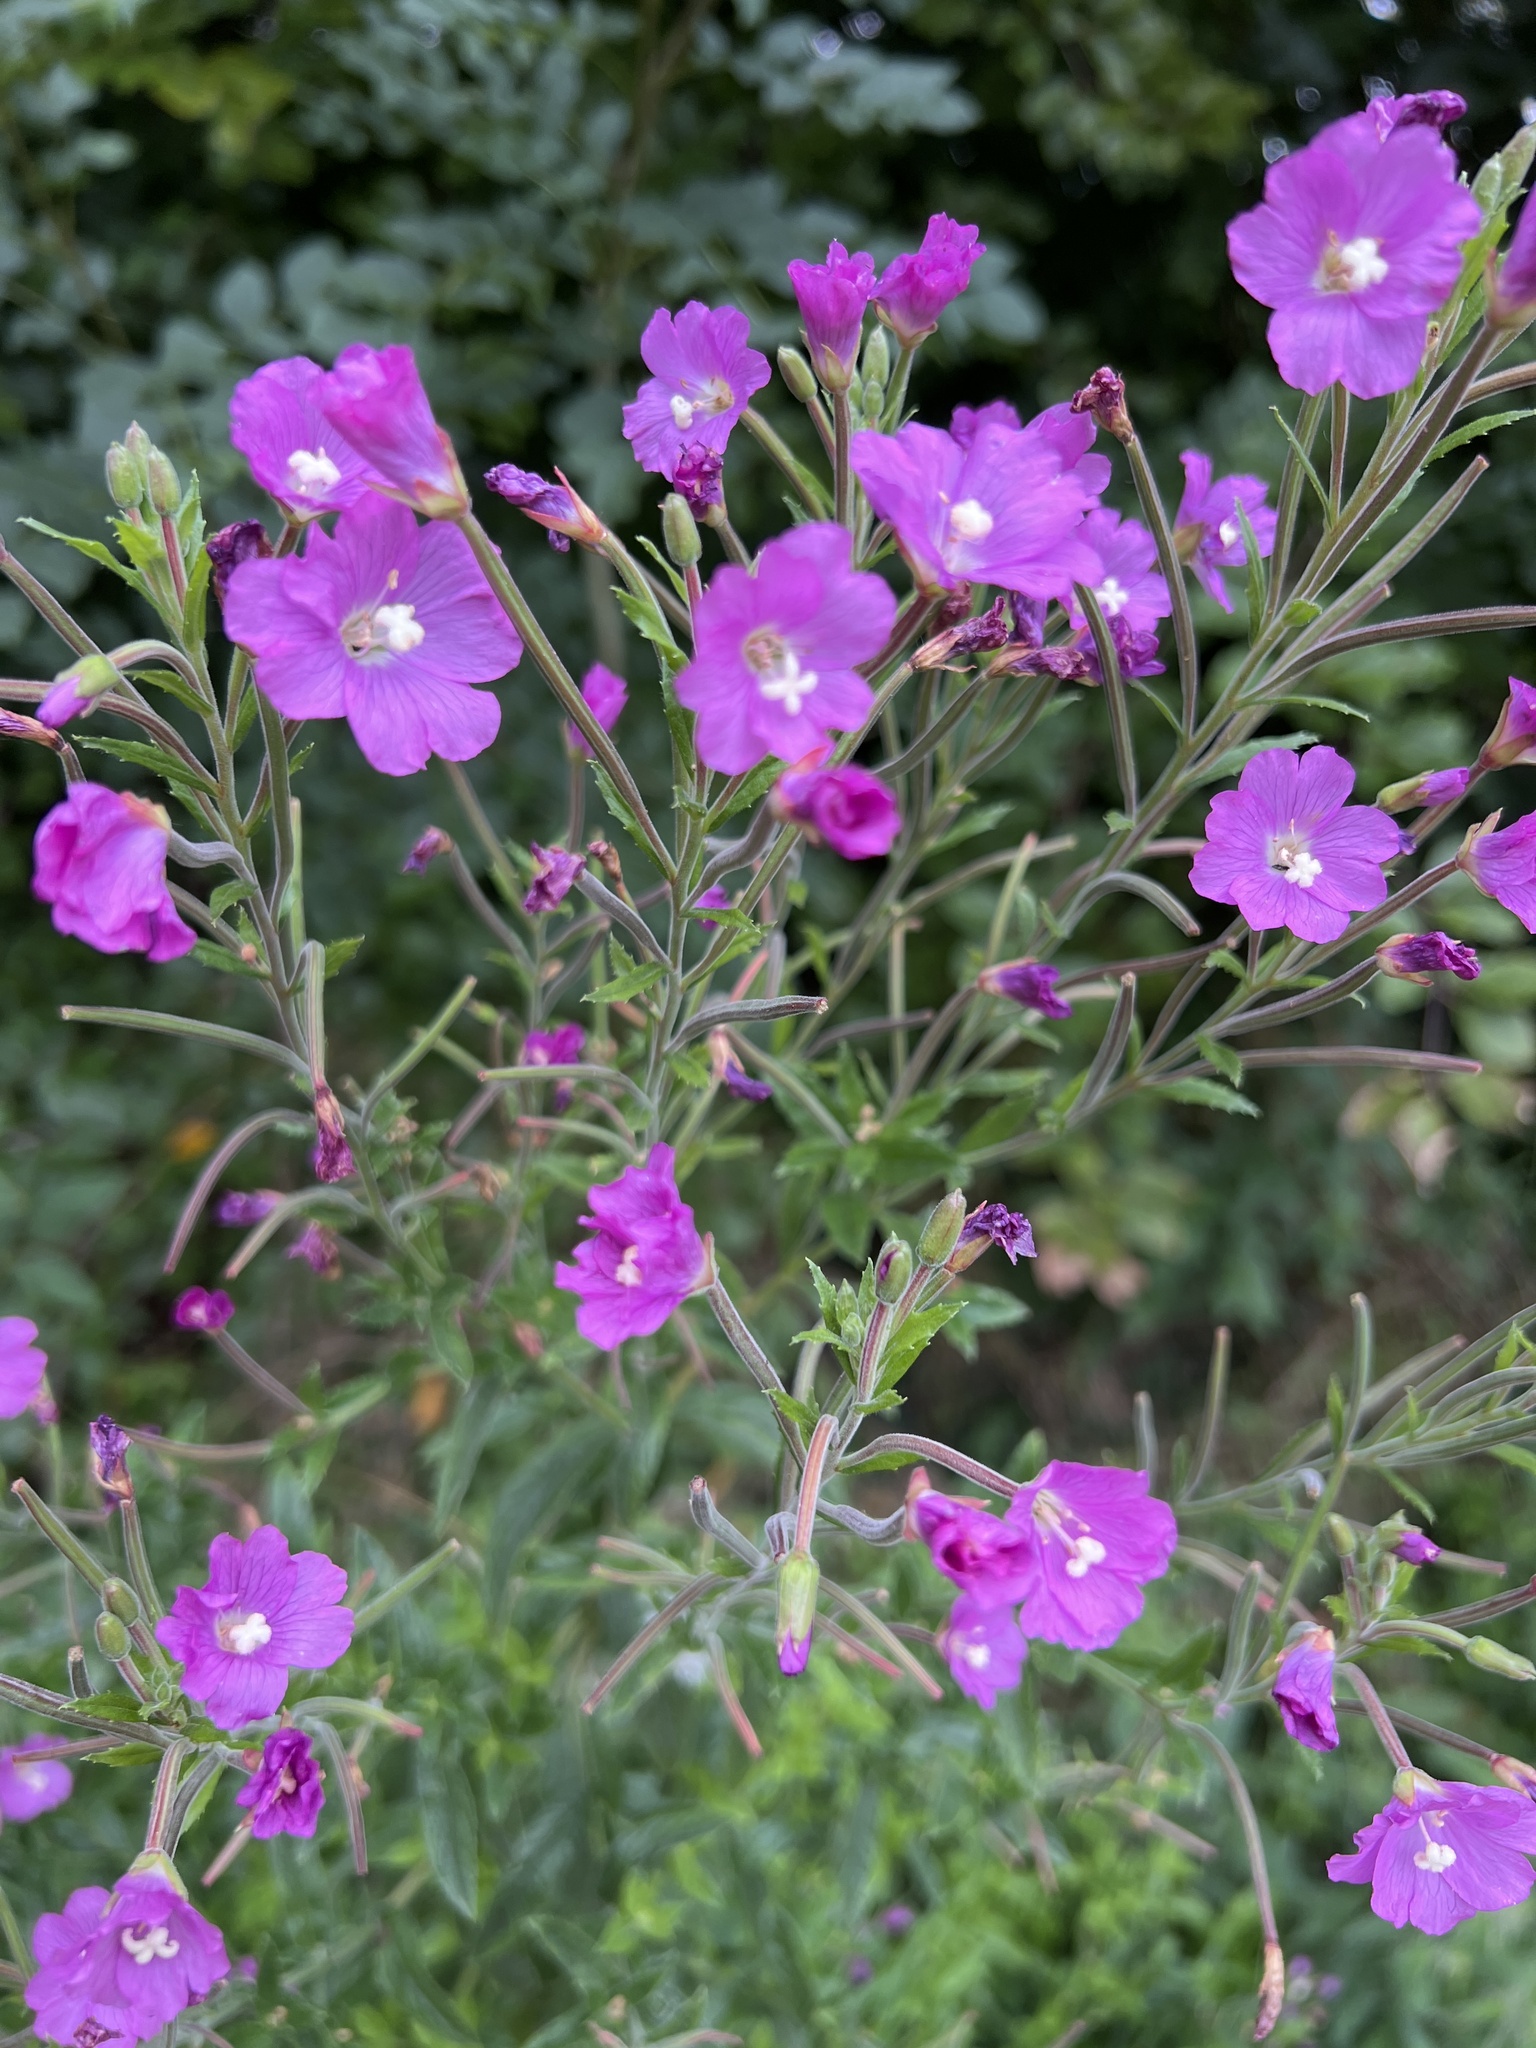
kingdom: Plantae
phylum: Tracheophyta
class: Magnoliopsida
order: Myrtales
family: Onagraceae
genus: Epilobium
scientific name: Epilobium hirsutum
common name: Great willowherb
